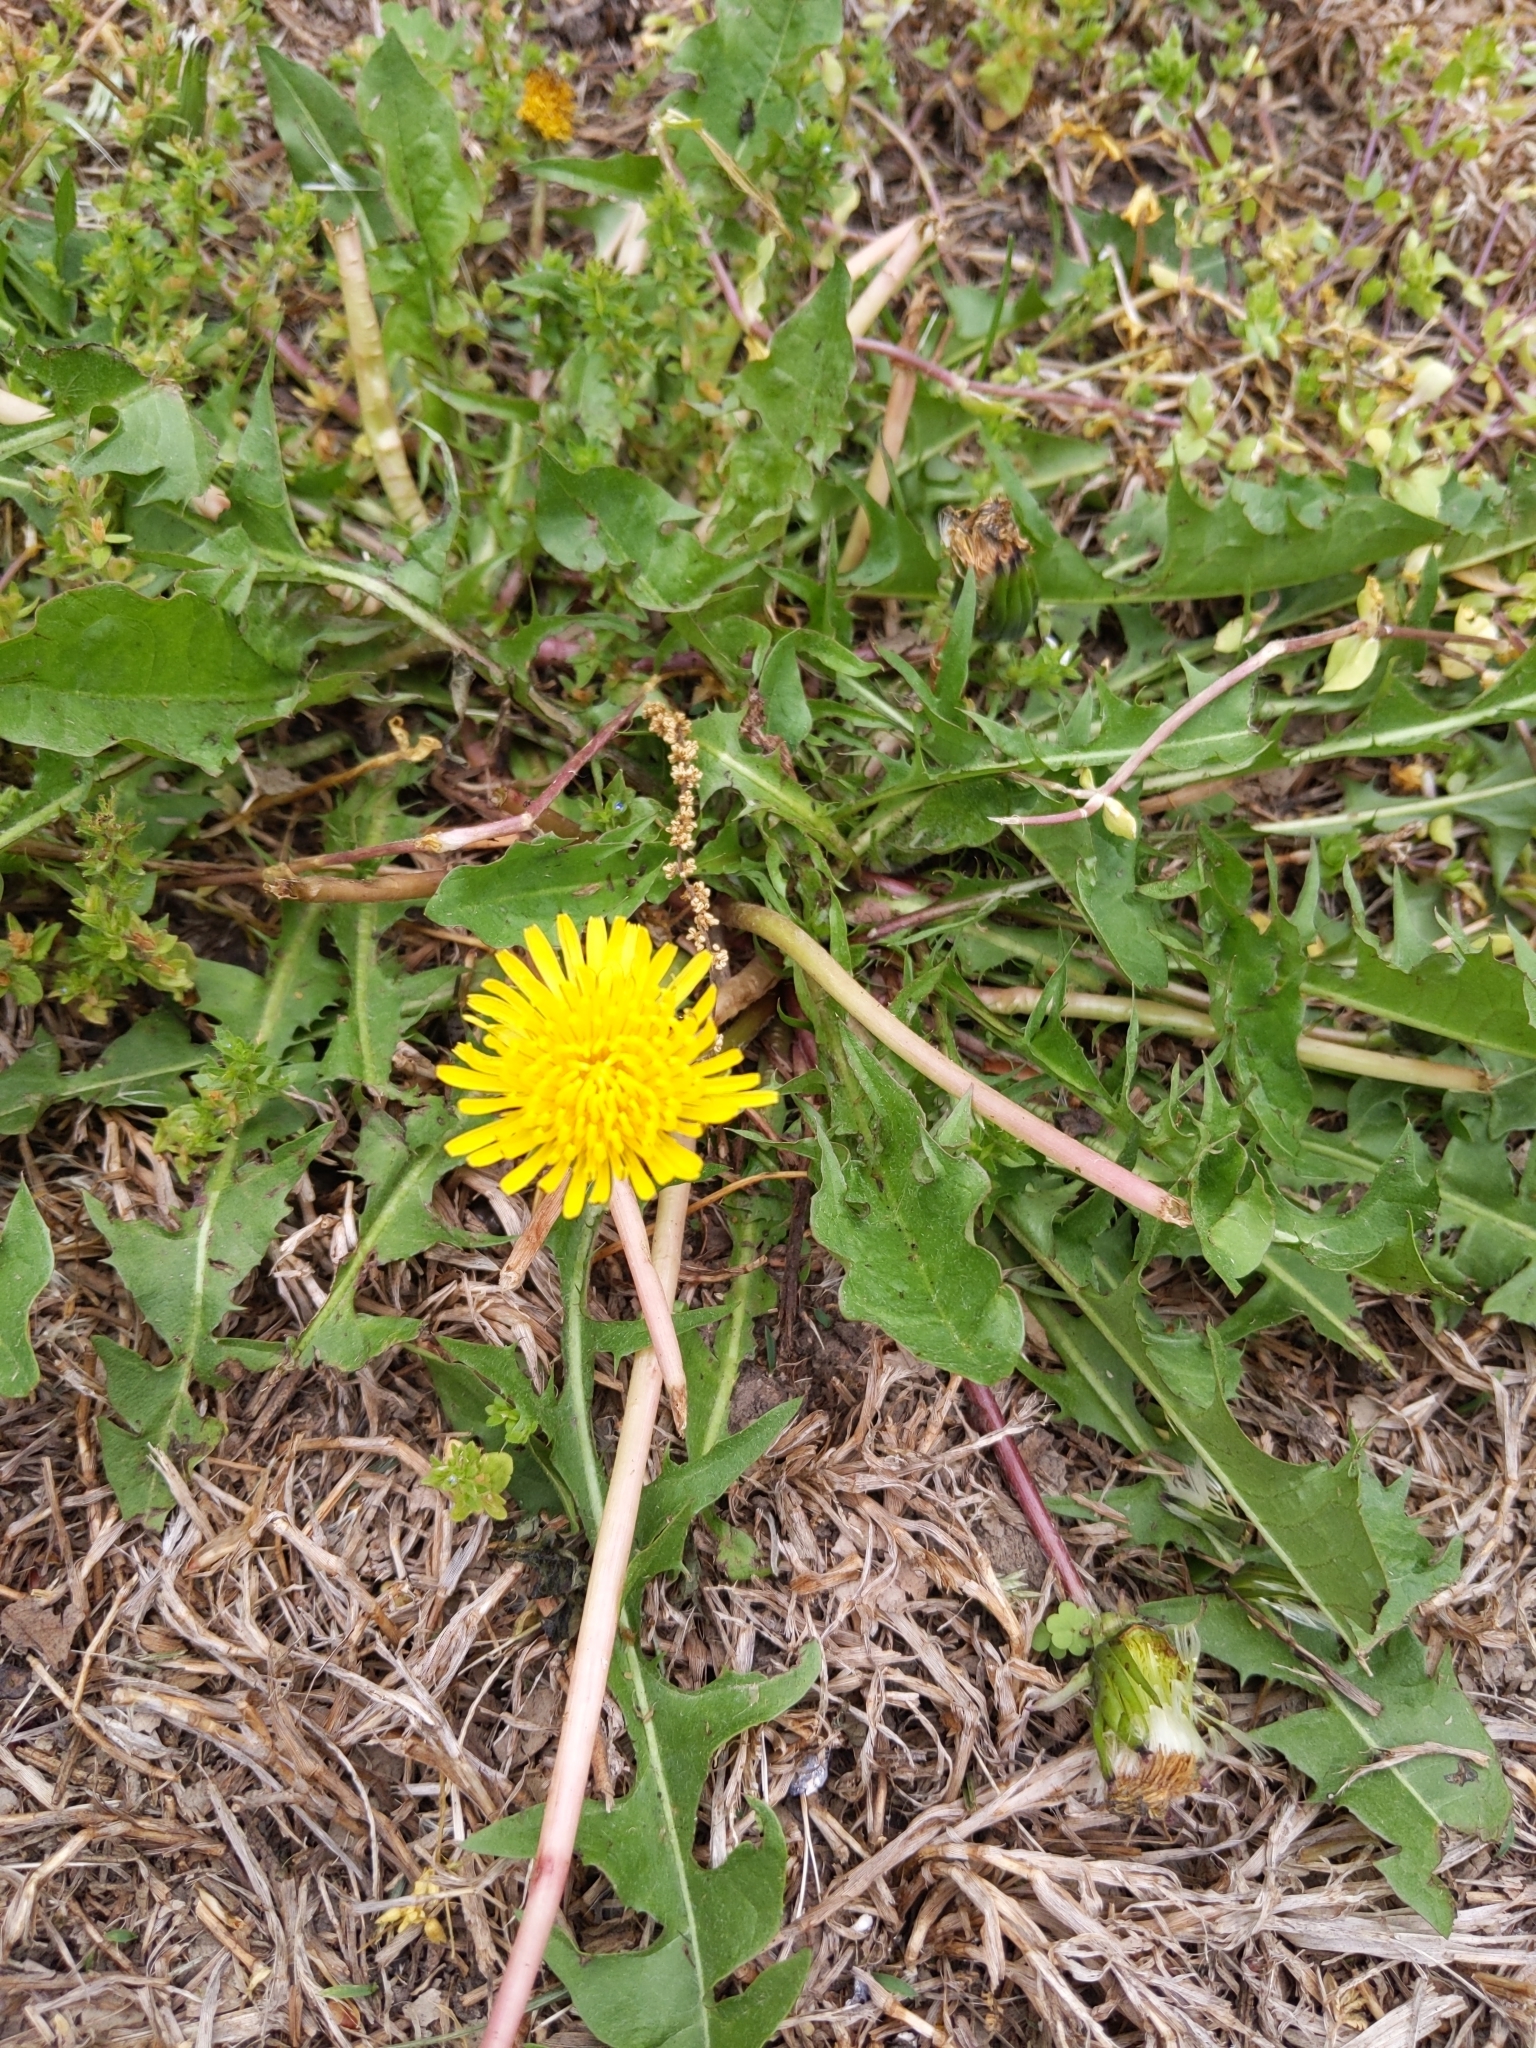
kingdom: Plantae
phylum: Tracheophyta
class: Magnoliopsida
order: Asterales
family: Asteraceae
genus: Taraxacum
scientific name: Taraxacum
